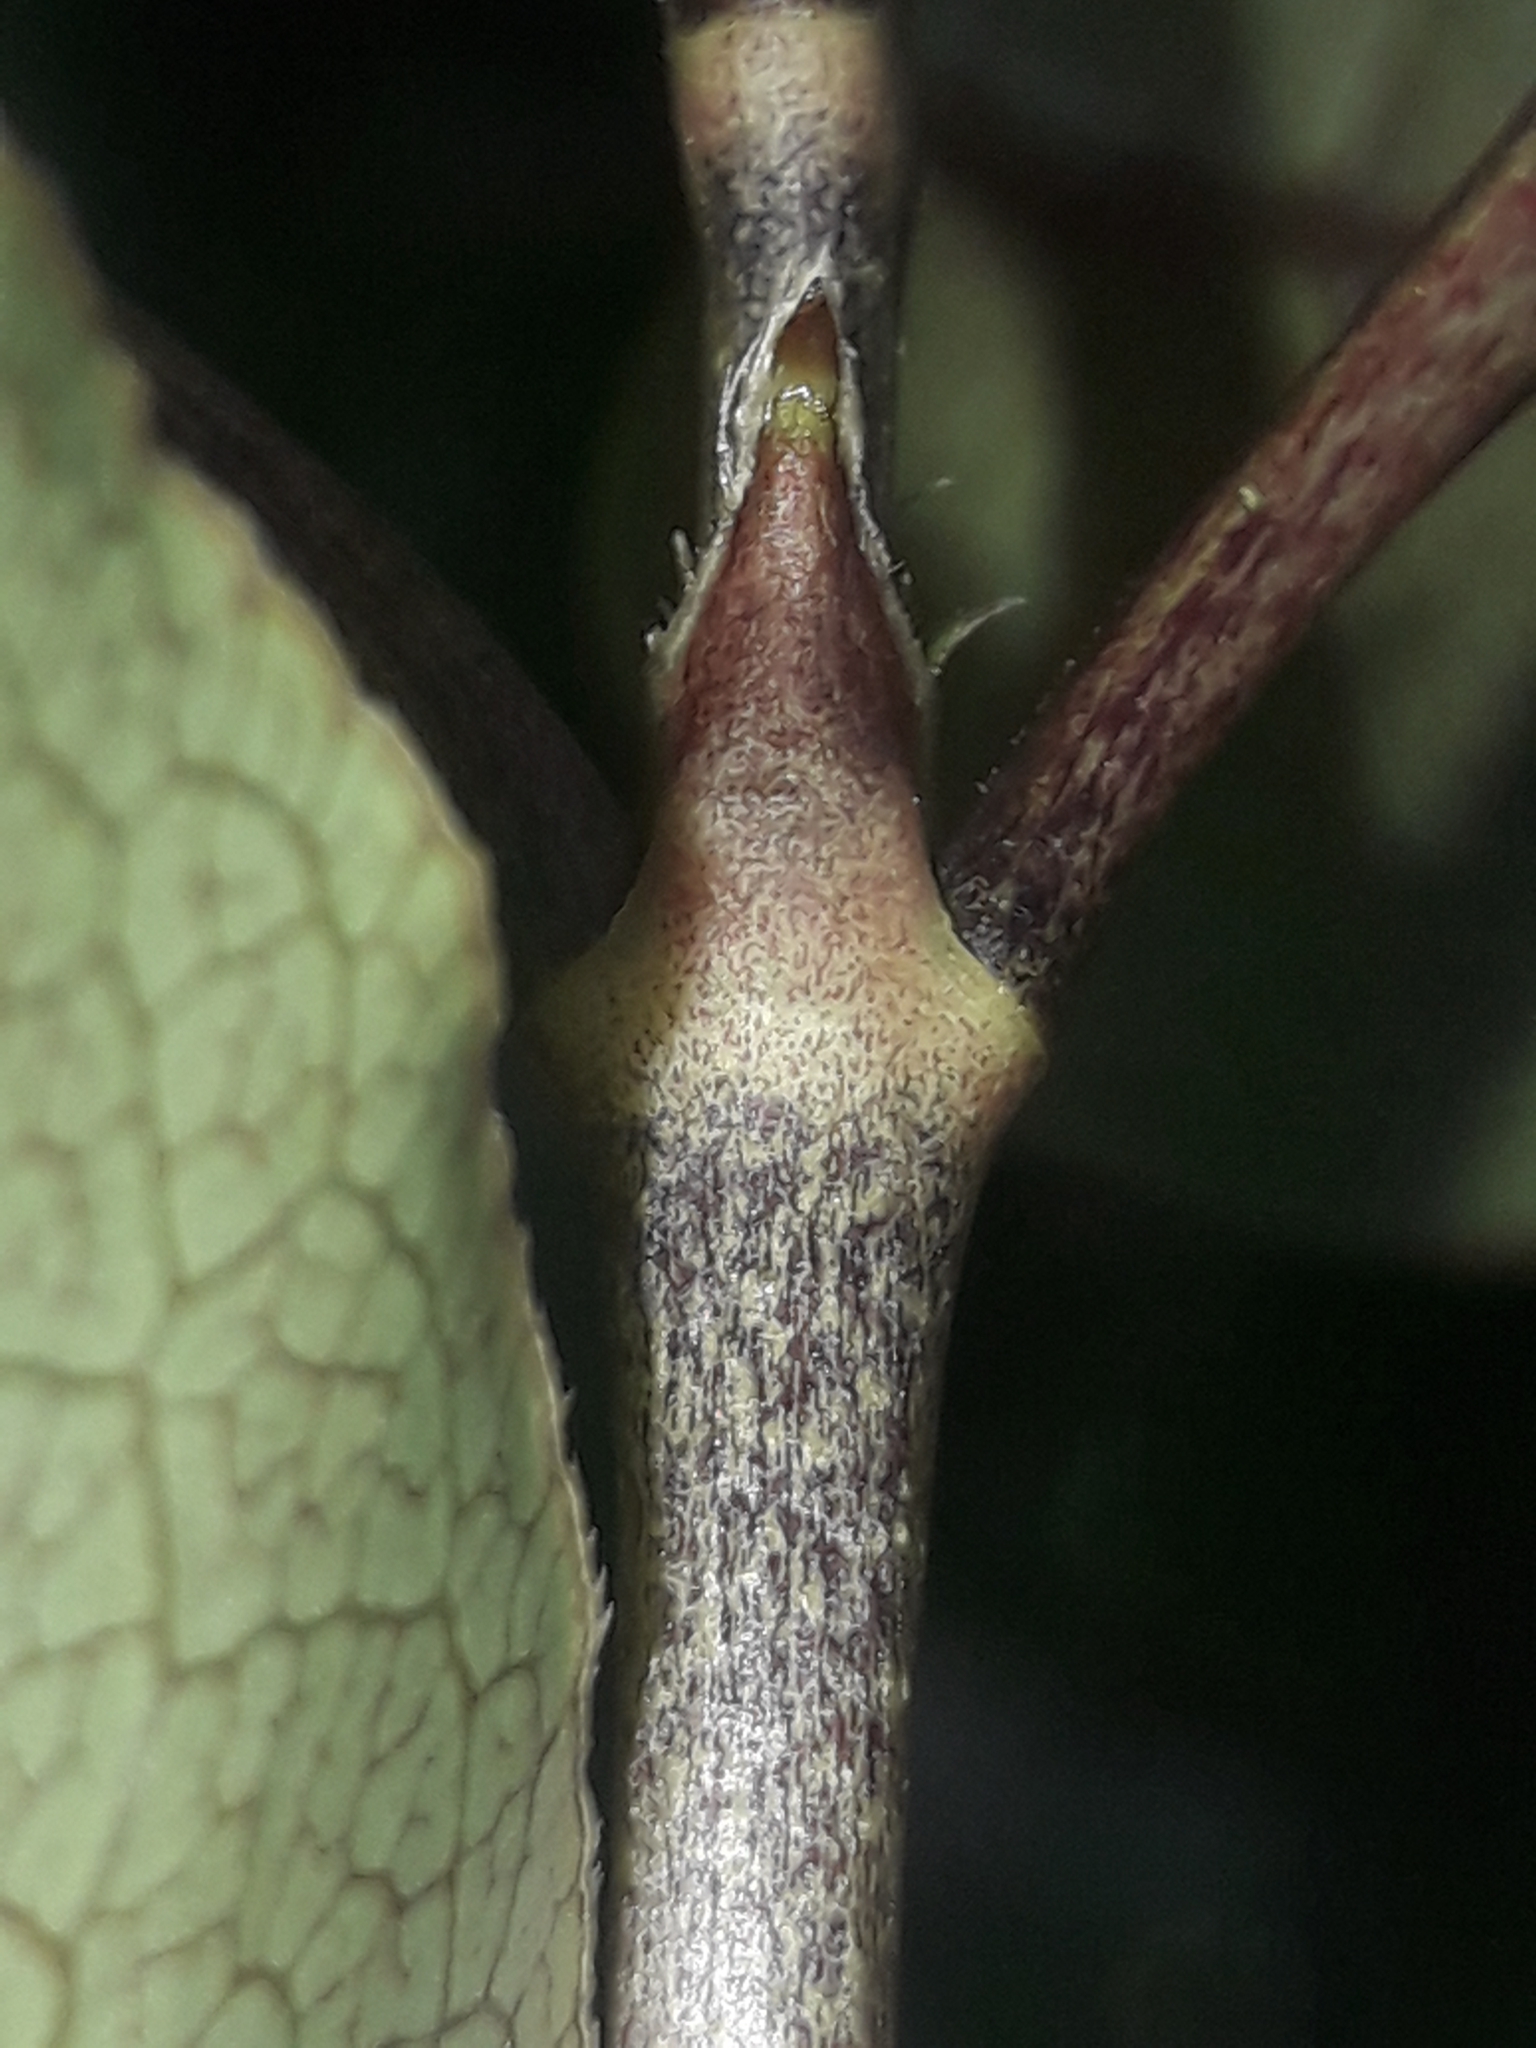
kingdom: Plantae
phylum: Tracheophyta
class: Magnoliopsida
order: Gentianales
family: Rubiaceae
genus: Coprosma
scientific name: Coprosma tenuifolia
